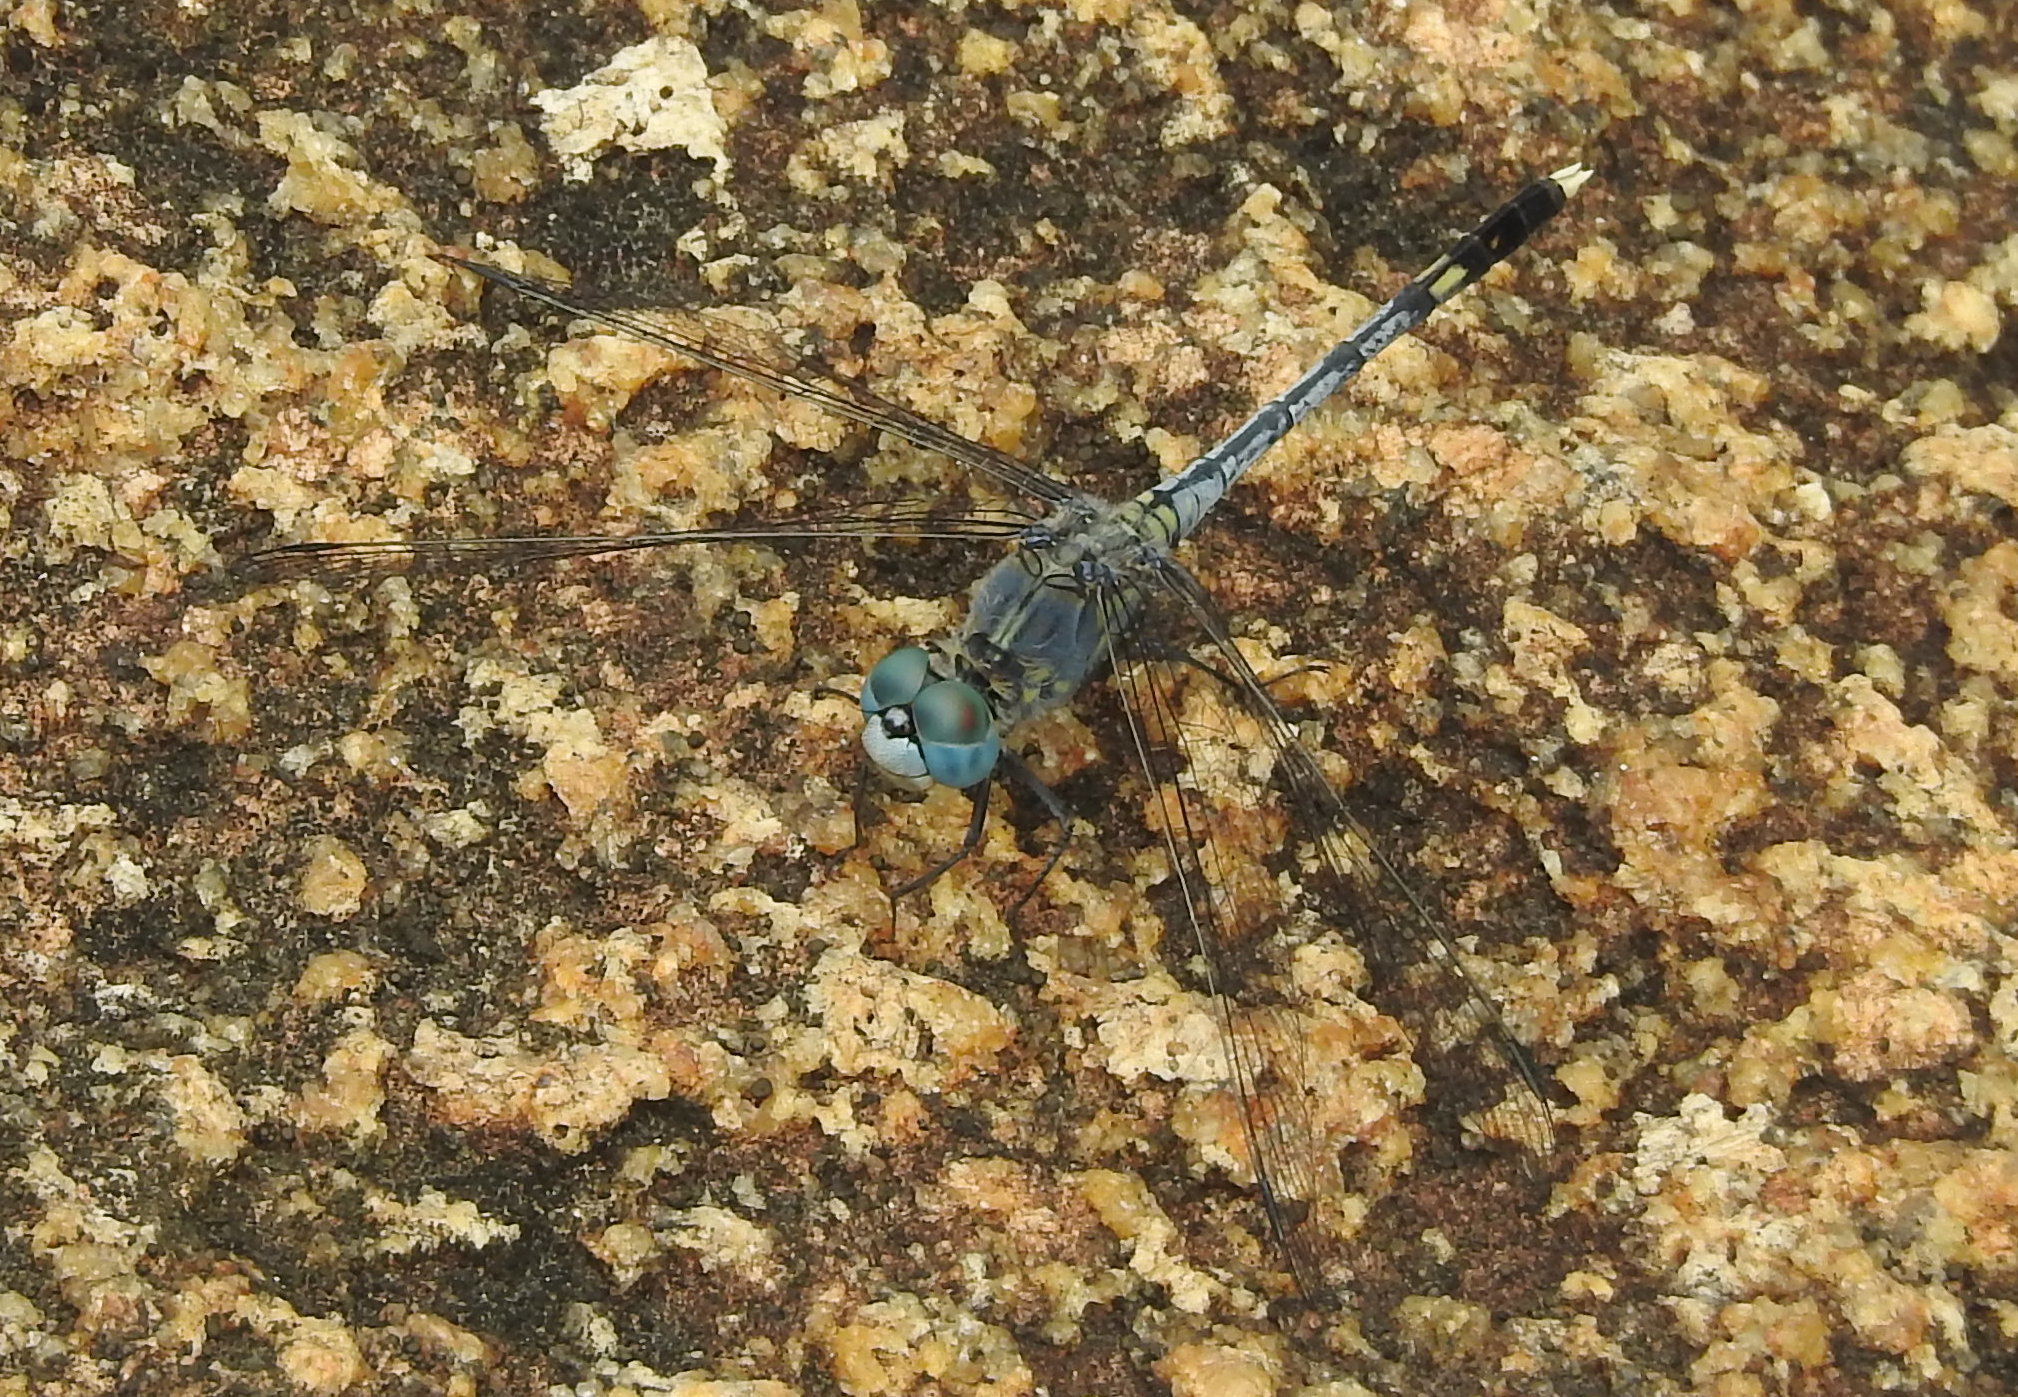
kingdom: Animalia
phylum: Arthropoda
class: Insecta
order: Odonata
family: Libellulidae
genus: Diplacodes
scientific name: Diplacodes trivialis
